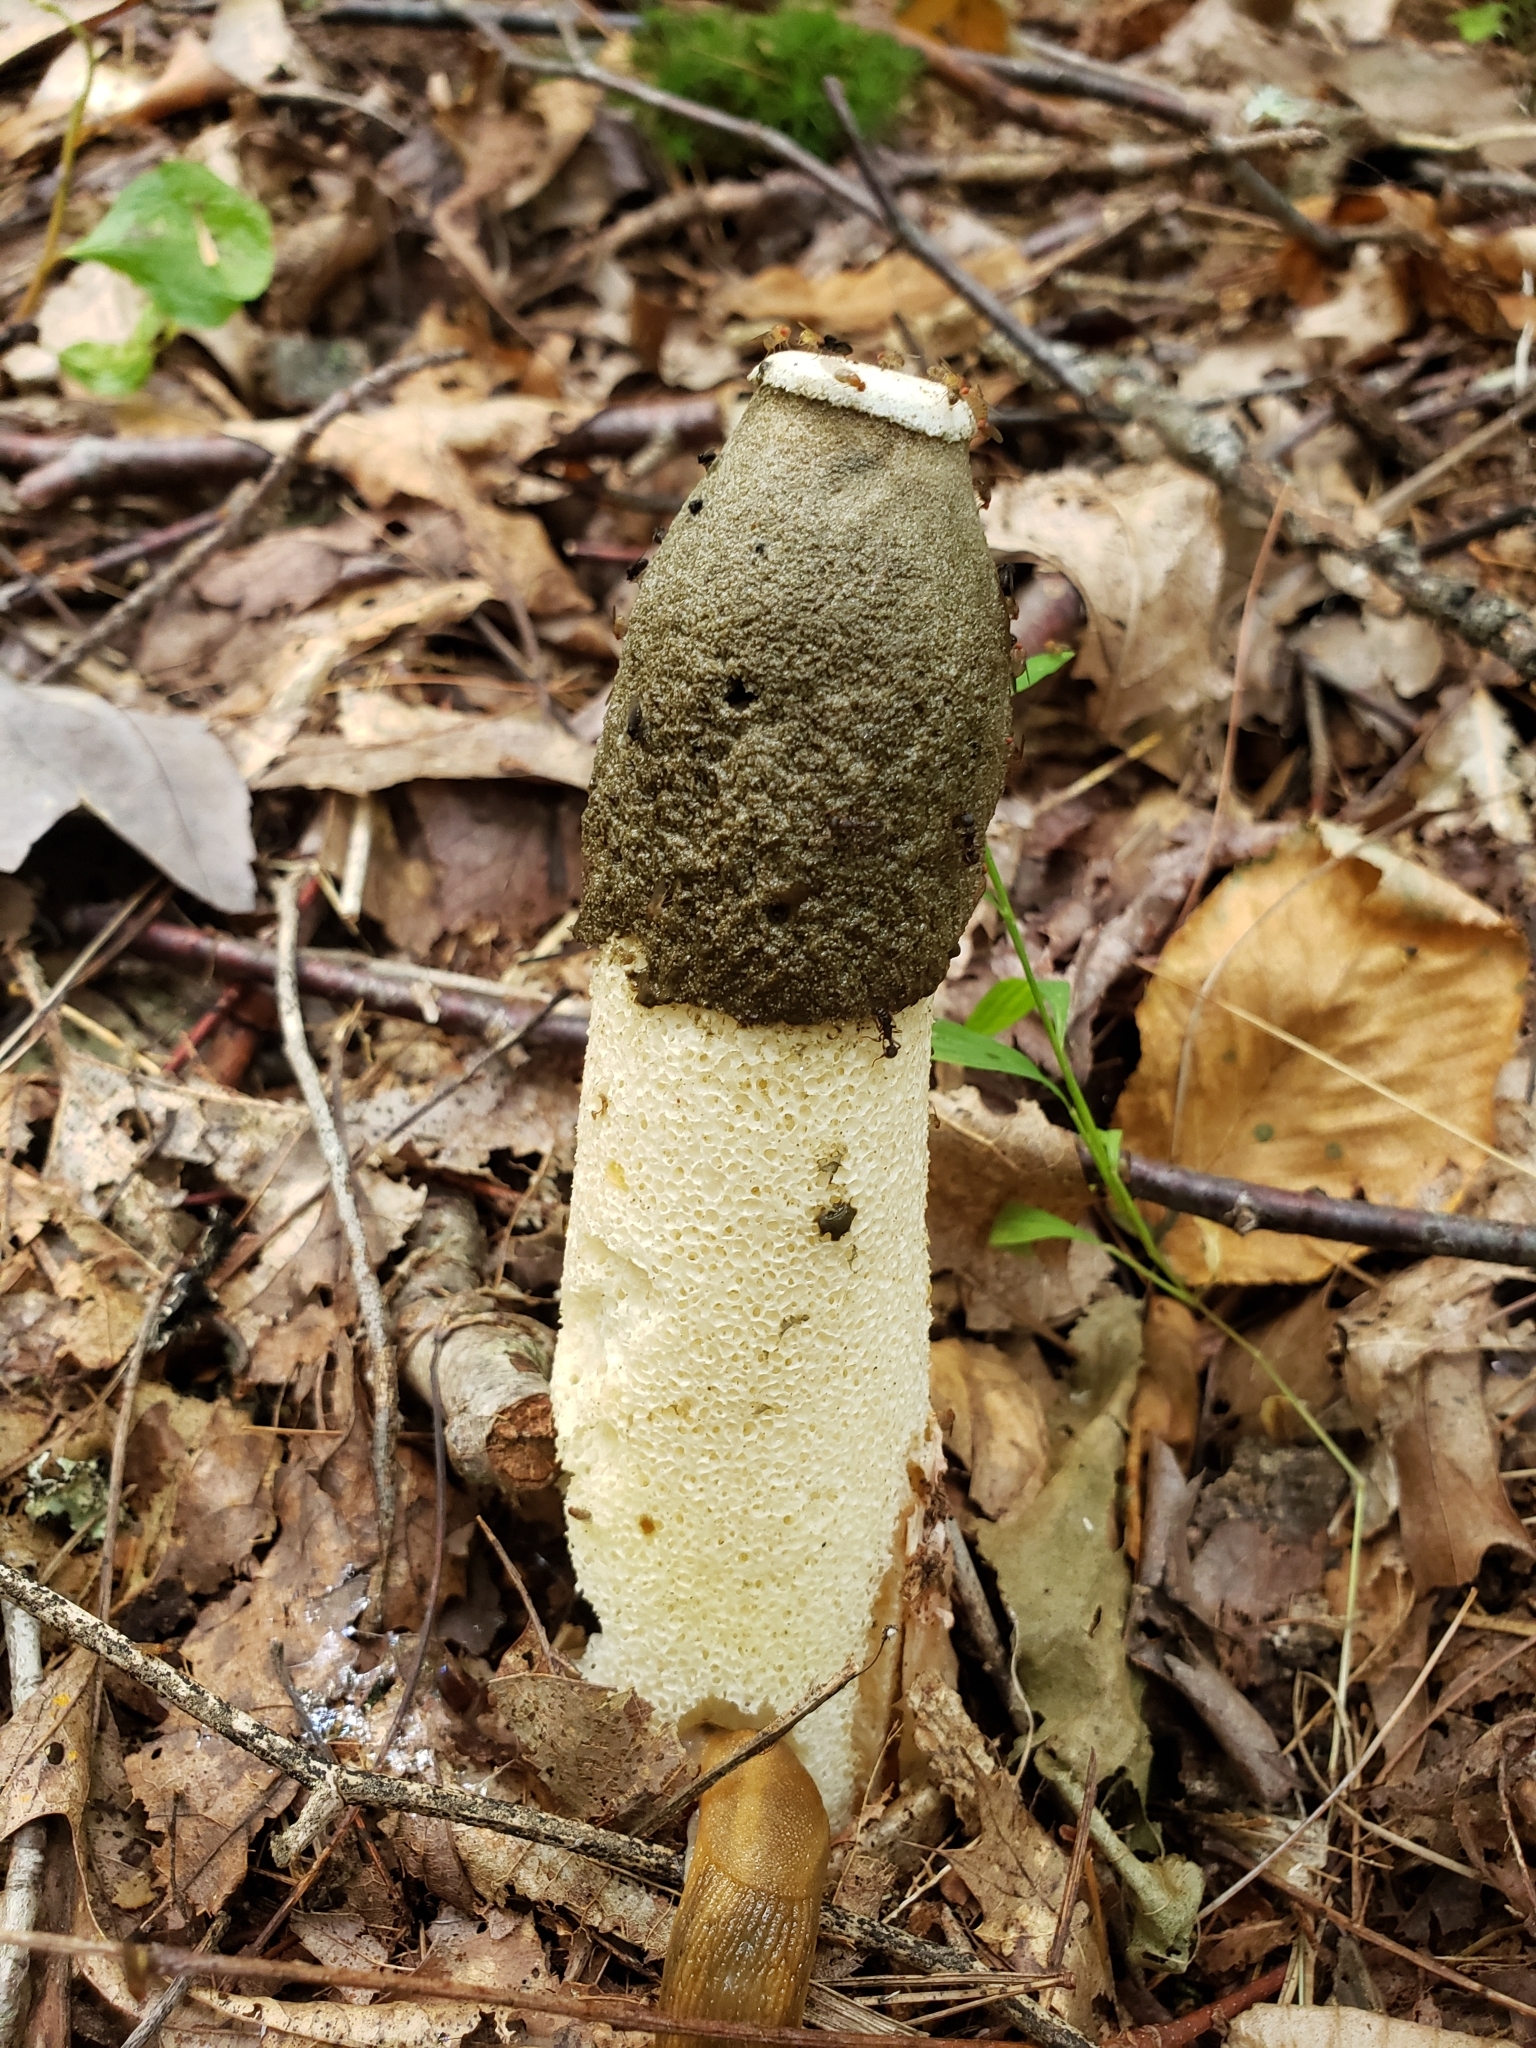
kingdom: Fungi
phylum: Basidiomycota
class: Agaricomycetes
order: Phallales
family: Phallaceae
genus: Phallus
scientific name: Phallus ravenelii
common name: Ravenel's stinkhorn
